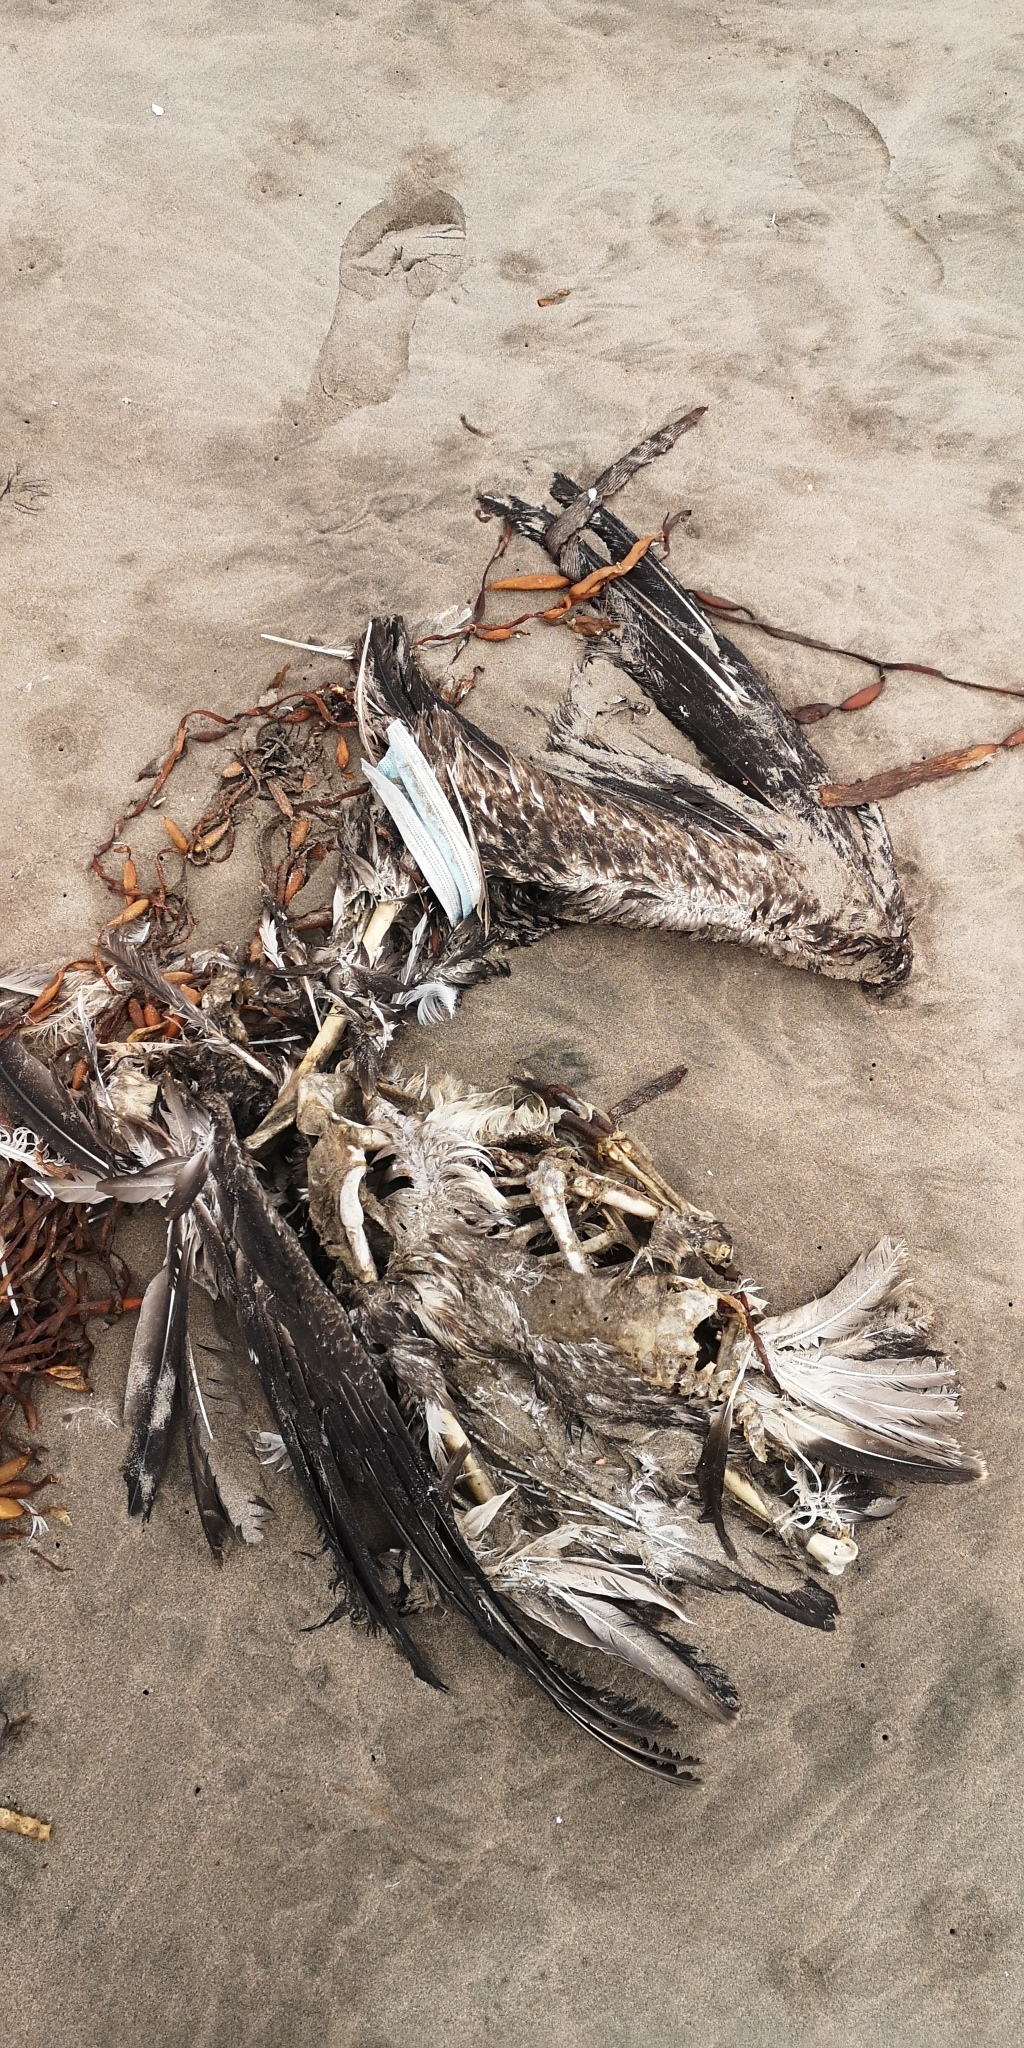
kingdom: Animalia
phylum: Chordata
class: Aves
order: Pelecaniformes
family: Pelecanidae
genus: Pelecanus
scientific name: Pelecanus thagus
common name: Peruvian pelican
